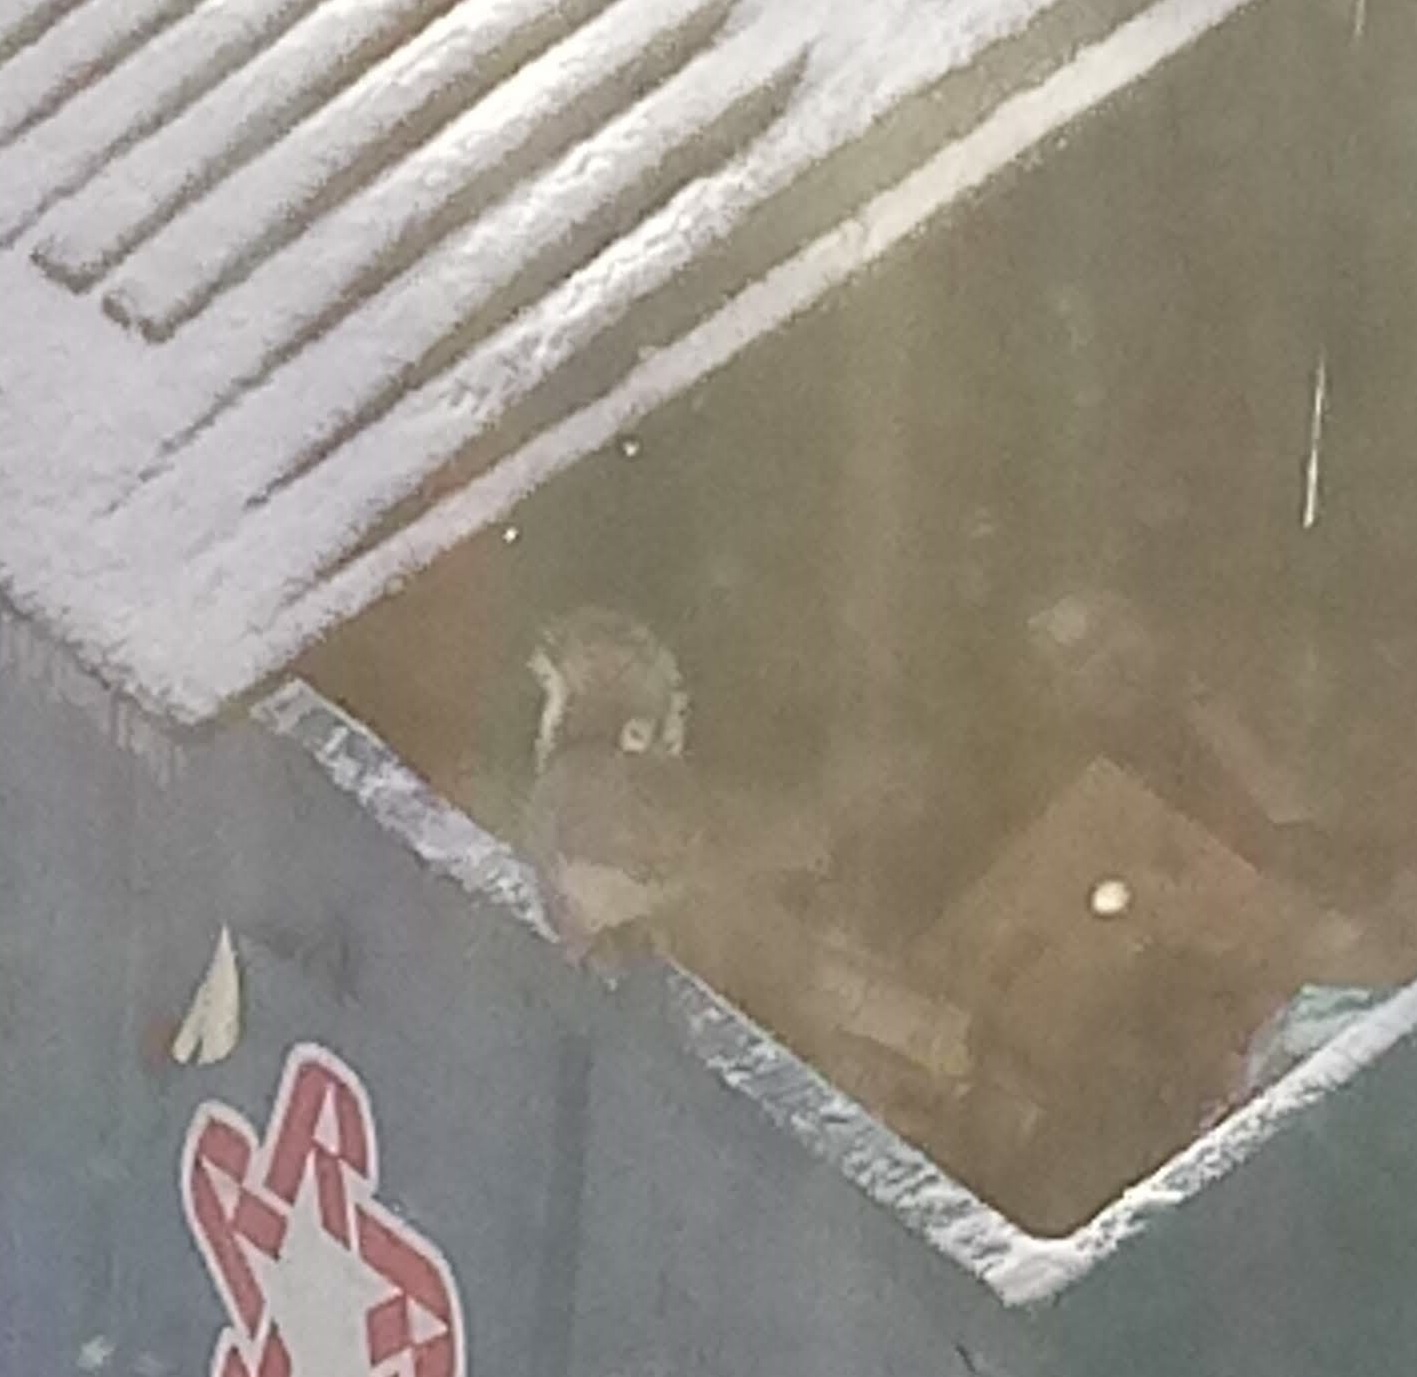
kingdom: Animalia
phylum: Chordata
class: Mammalia
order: Rodentia
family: Sciuridae
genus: Sciurus
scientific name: Sciurus carolinensis
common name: Eastern gray squirrel
